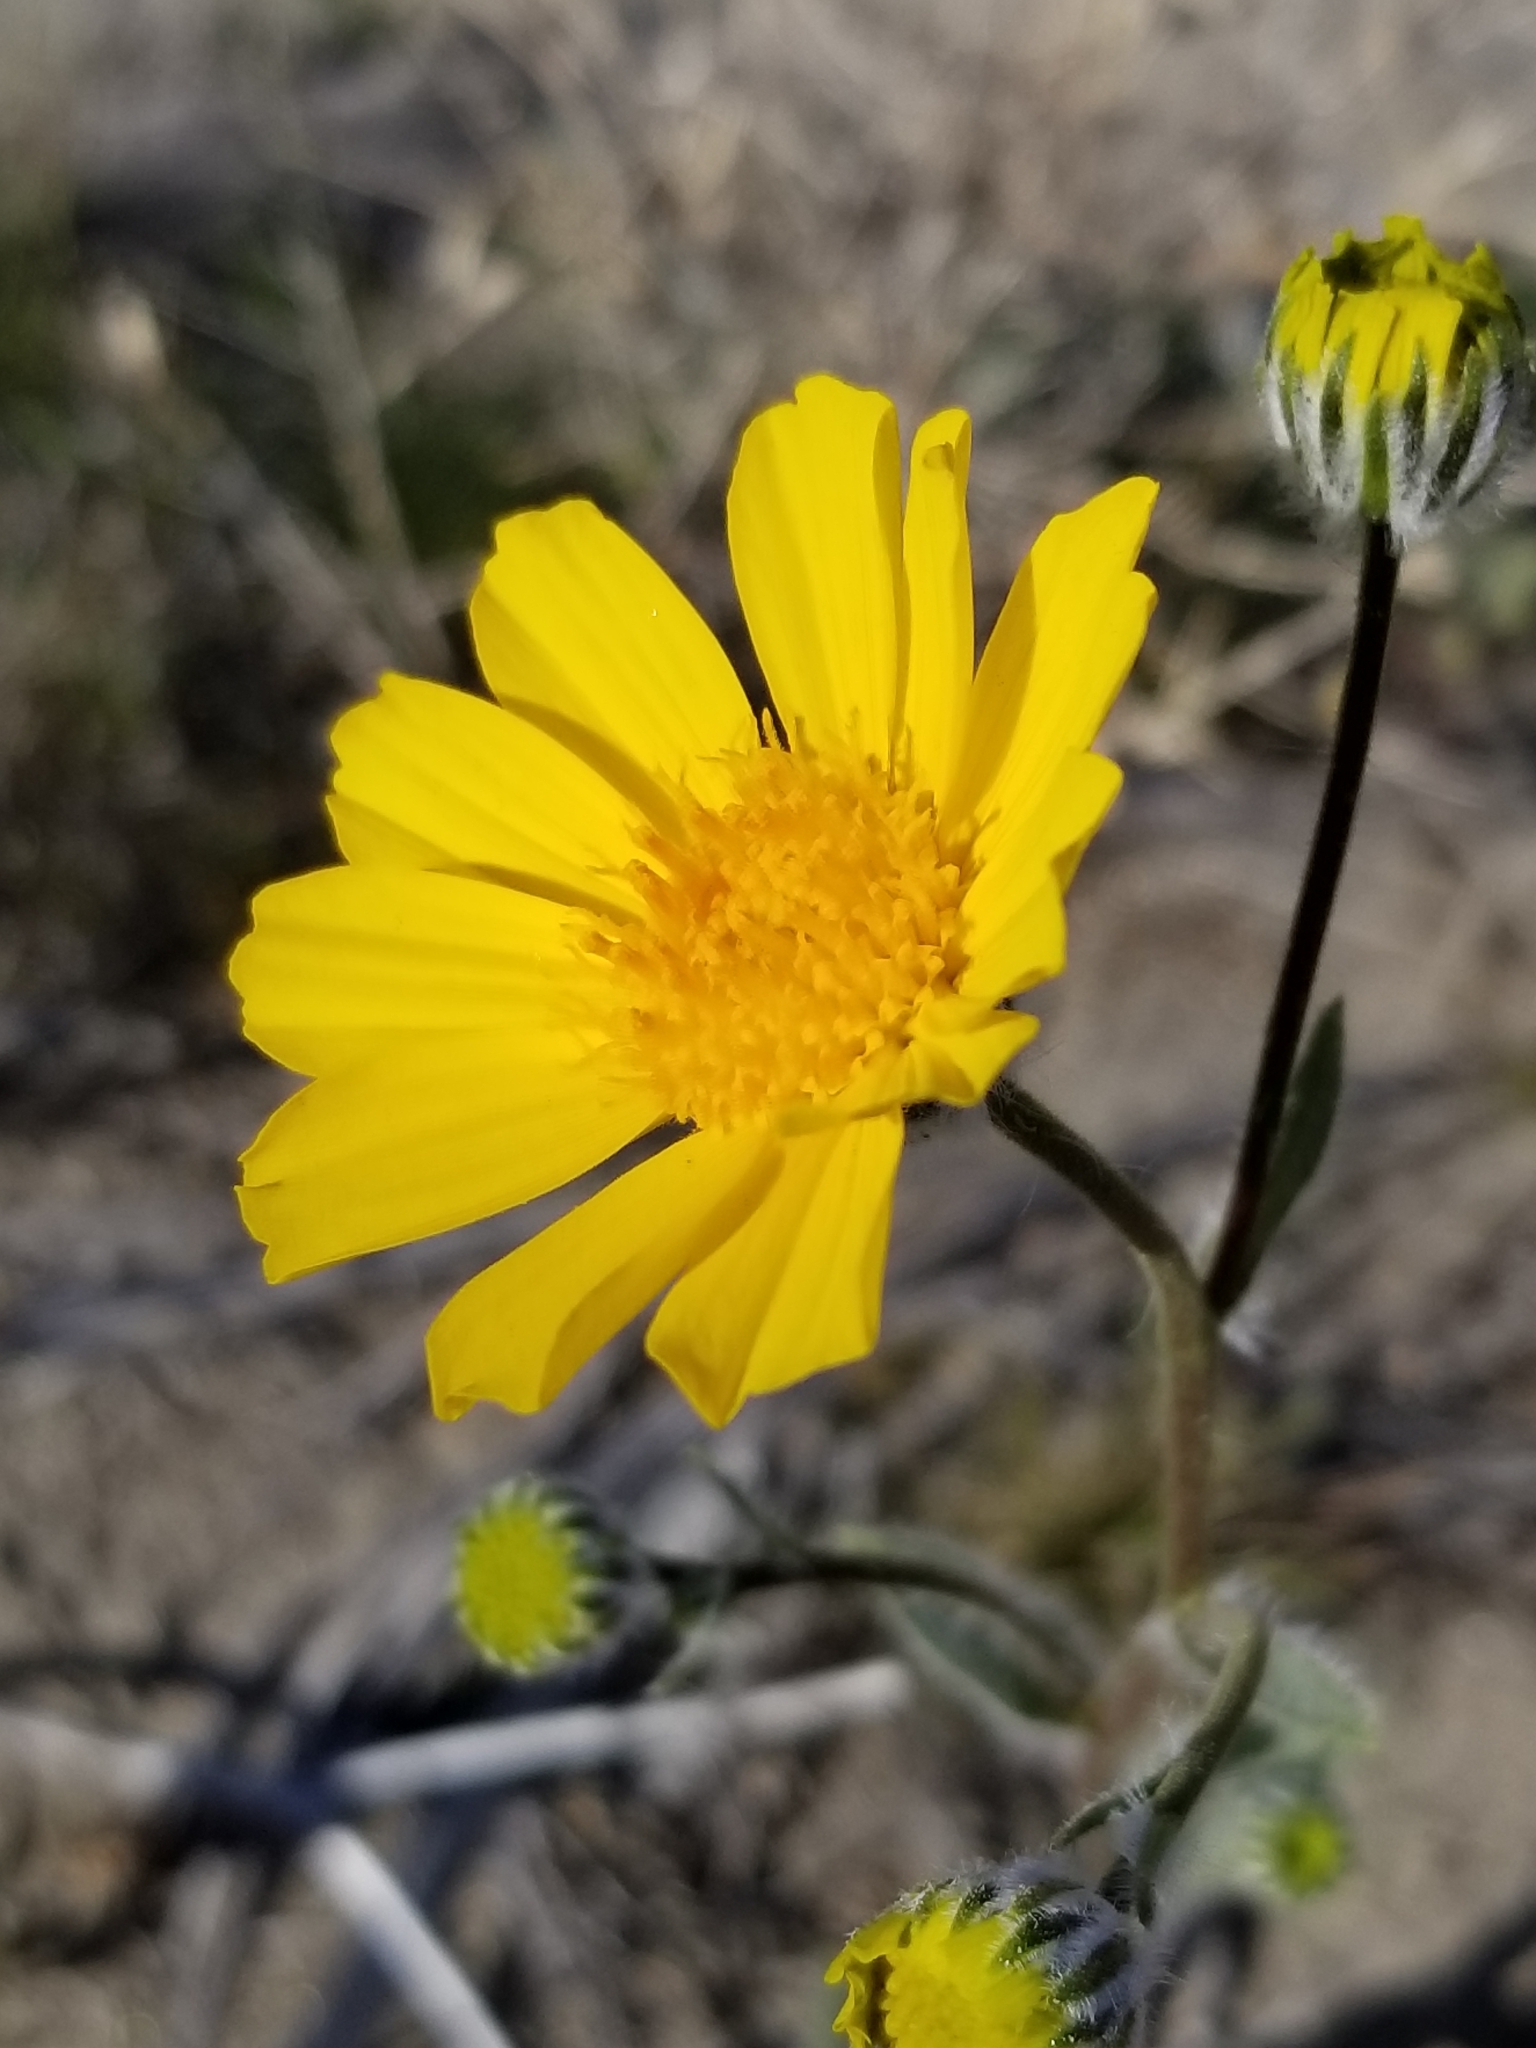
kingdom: Plantae
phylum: Tracheophyta
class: Magnoliopsida
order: Asterales
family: Asteraceae
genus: Geraea
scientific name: Geraea canescens
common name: Desert-gold
